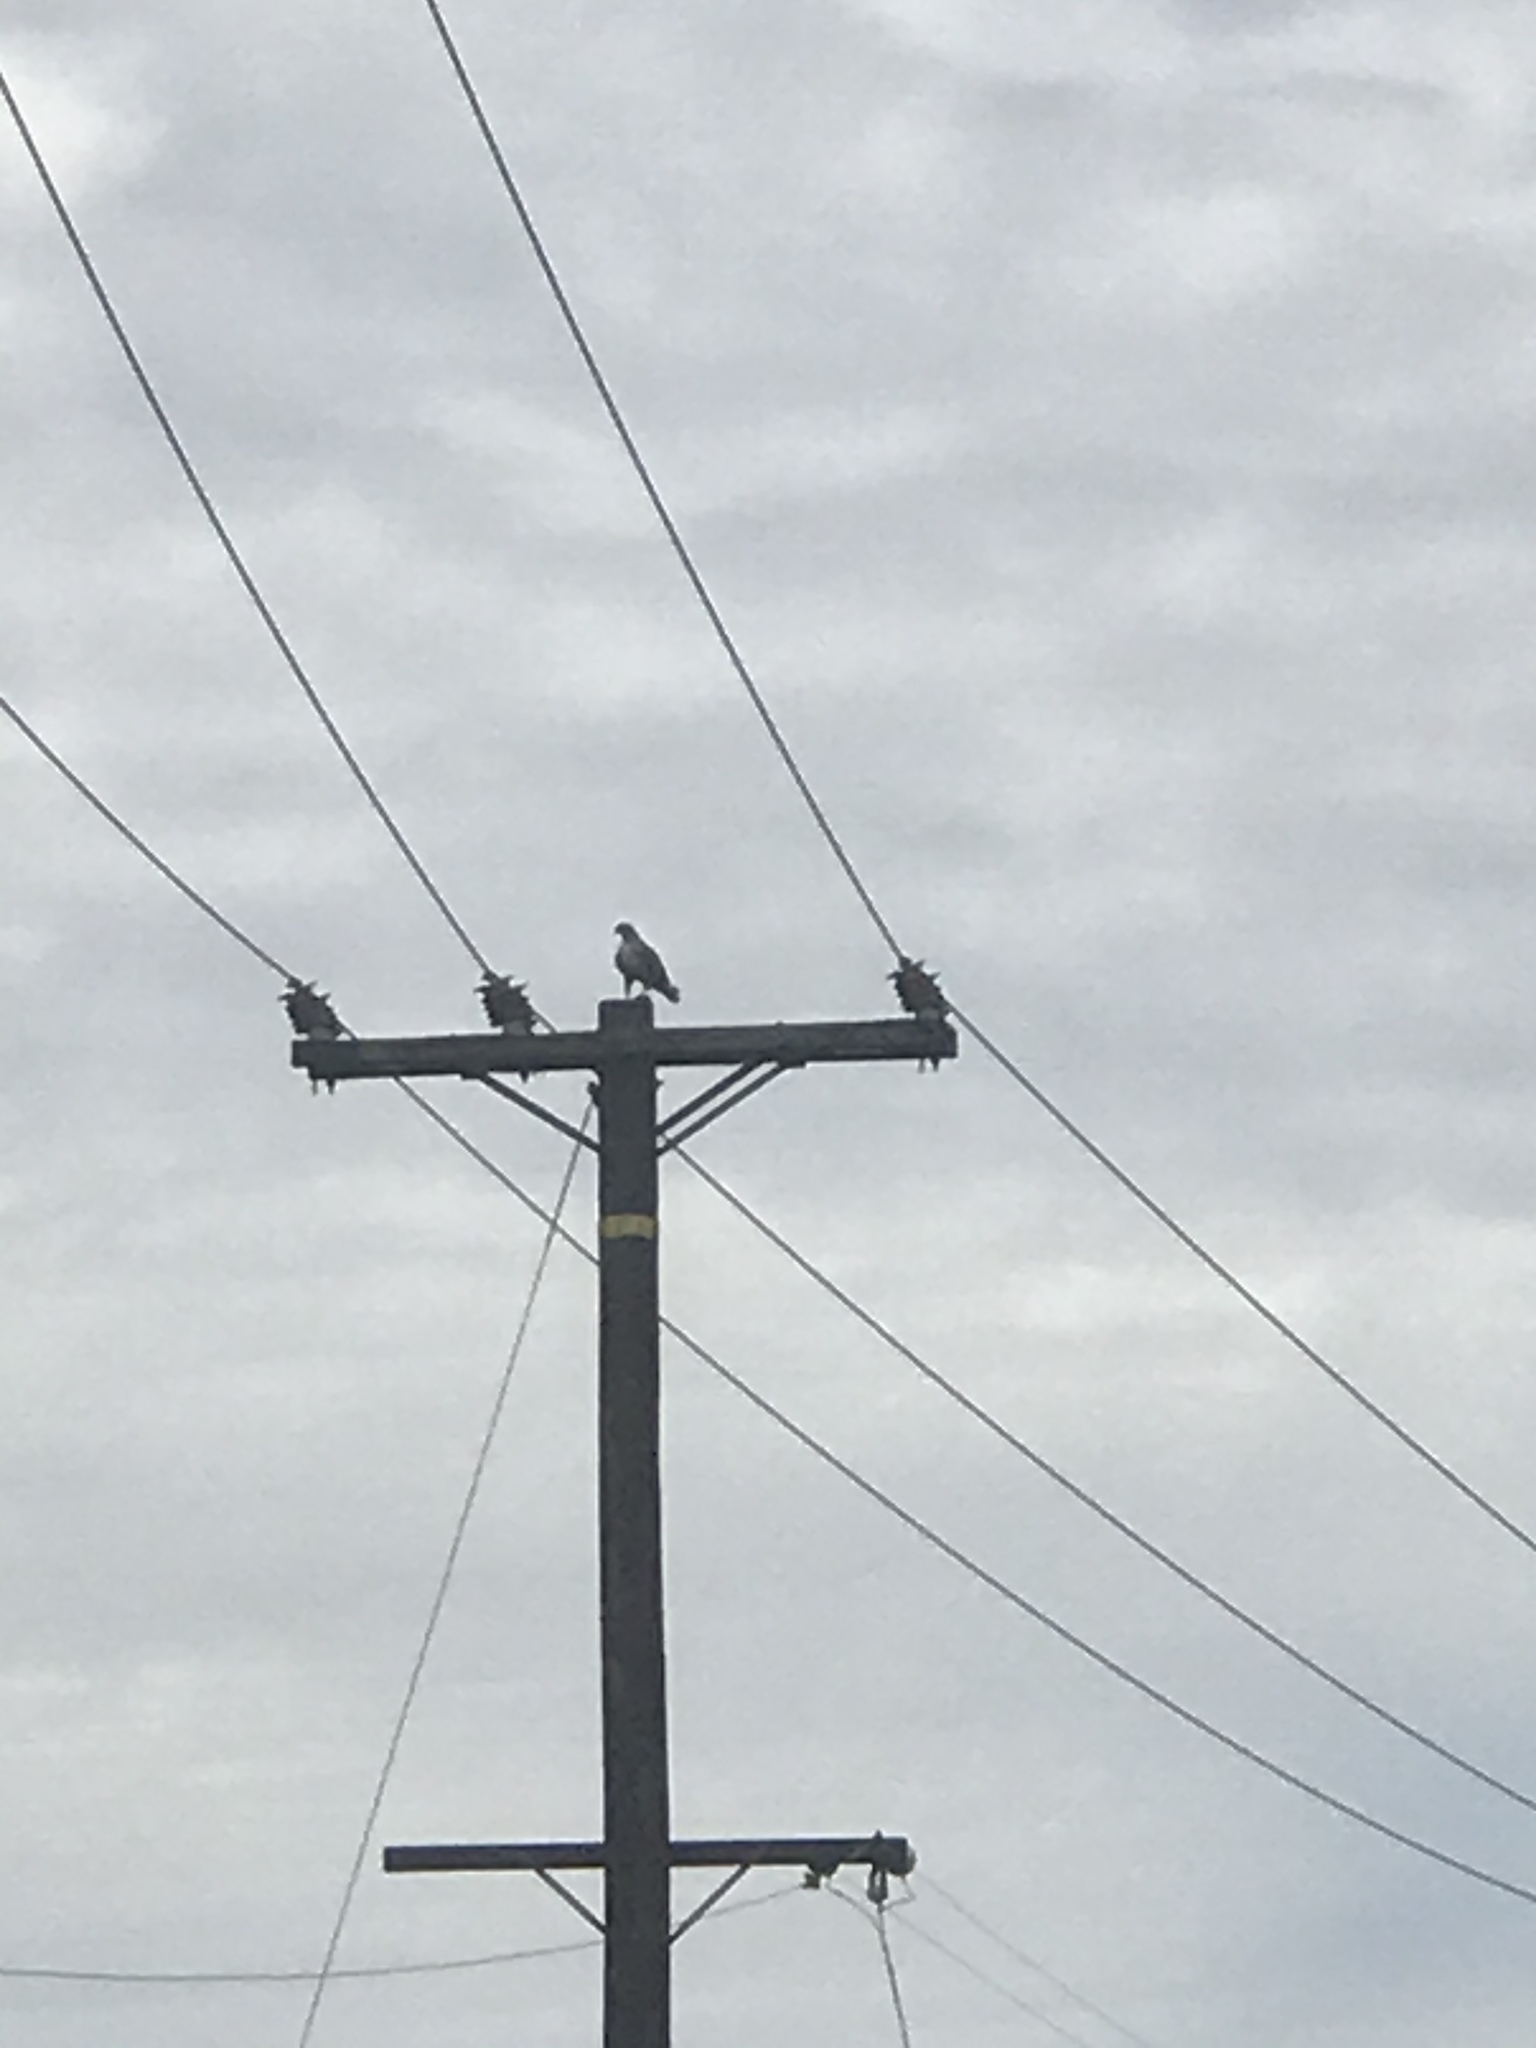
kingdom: Animalia
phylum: Chordata
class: Aves
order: Accipitriformes
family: Accipitridae
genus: Buteo
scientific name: Buteo jamaicensis
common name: Red-tailed hawk
